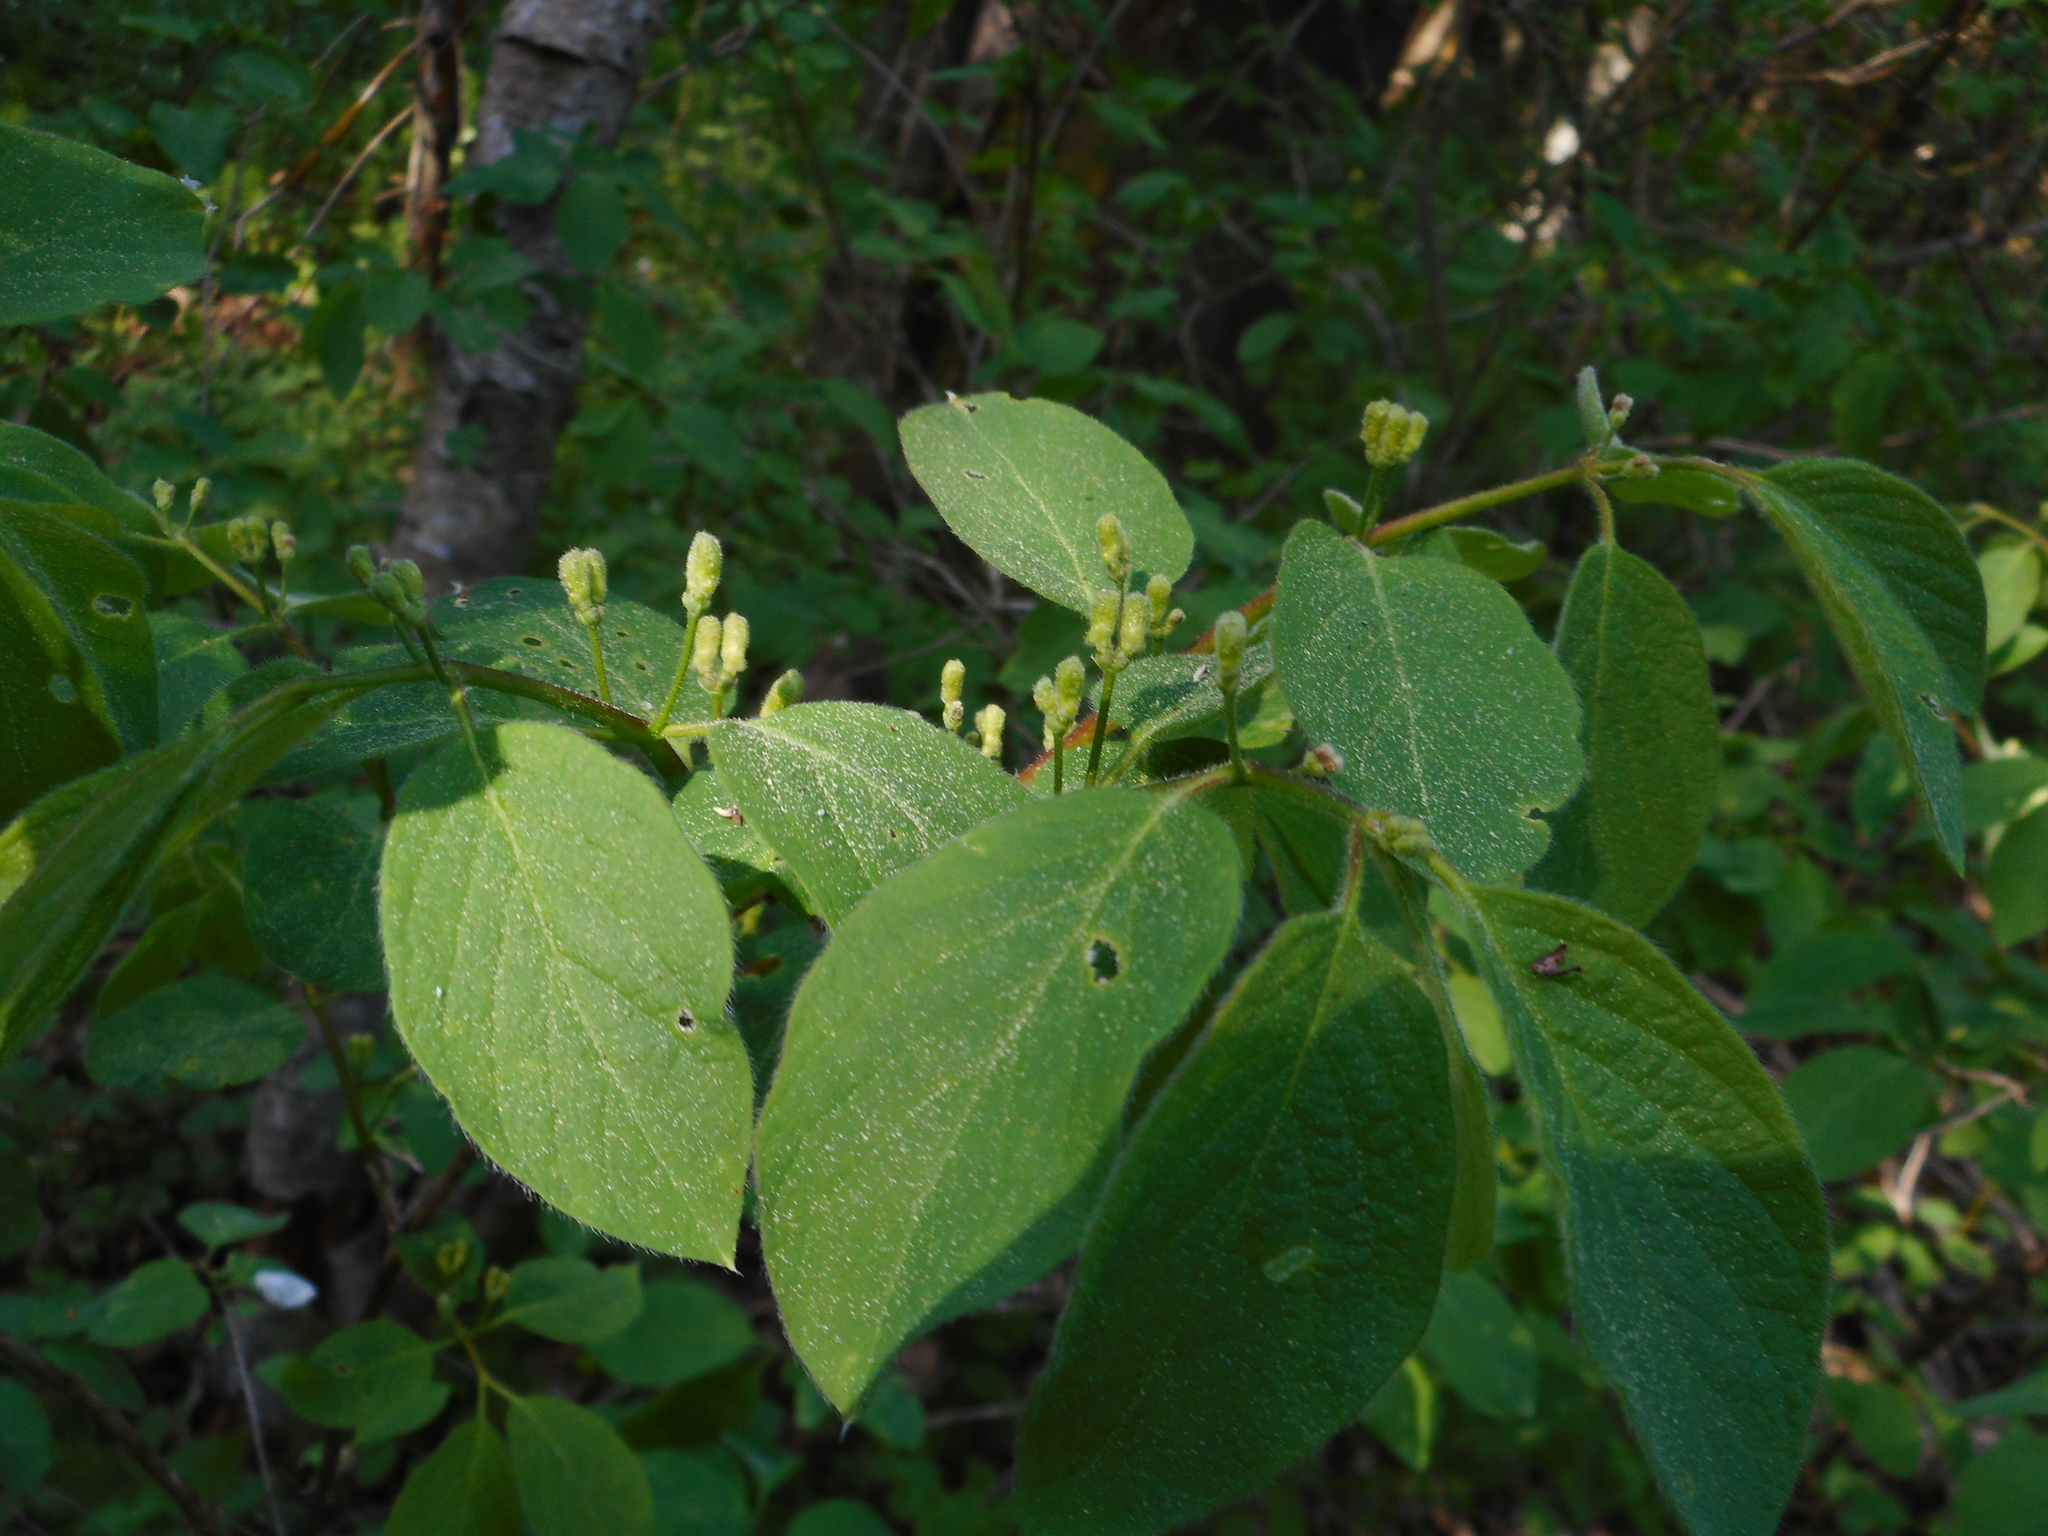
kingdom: Plantae
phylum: Tracheophyta
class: Magnoliopsida
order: Dipsacales
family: Caprifoliaceae
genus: Lonicera
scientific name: Lonicera xylosteum
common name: Fly honeysuckle
